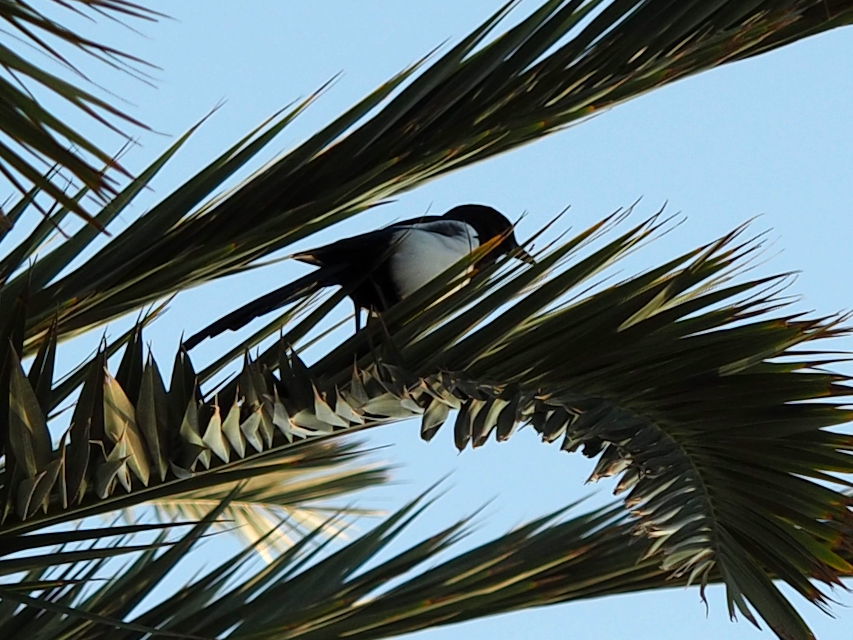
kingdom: Animalia
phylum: Chordata
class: Aves
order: Passeriformes
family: Corvidae
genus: Pica
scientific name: Pica pica
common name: Eurasian magpie
